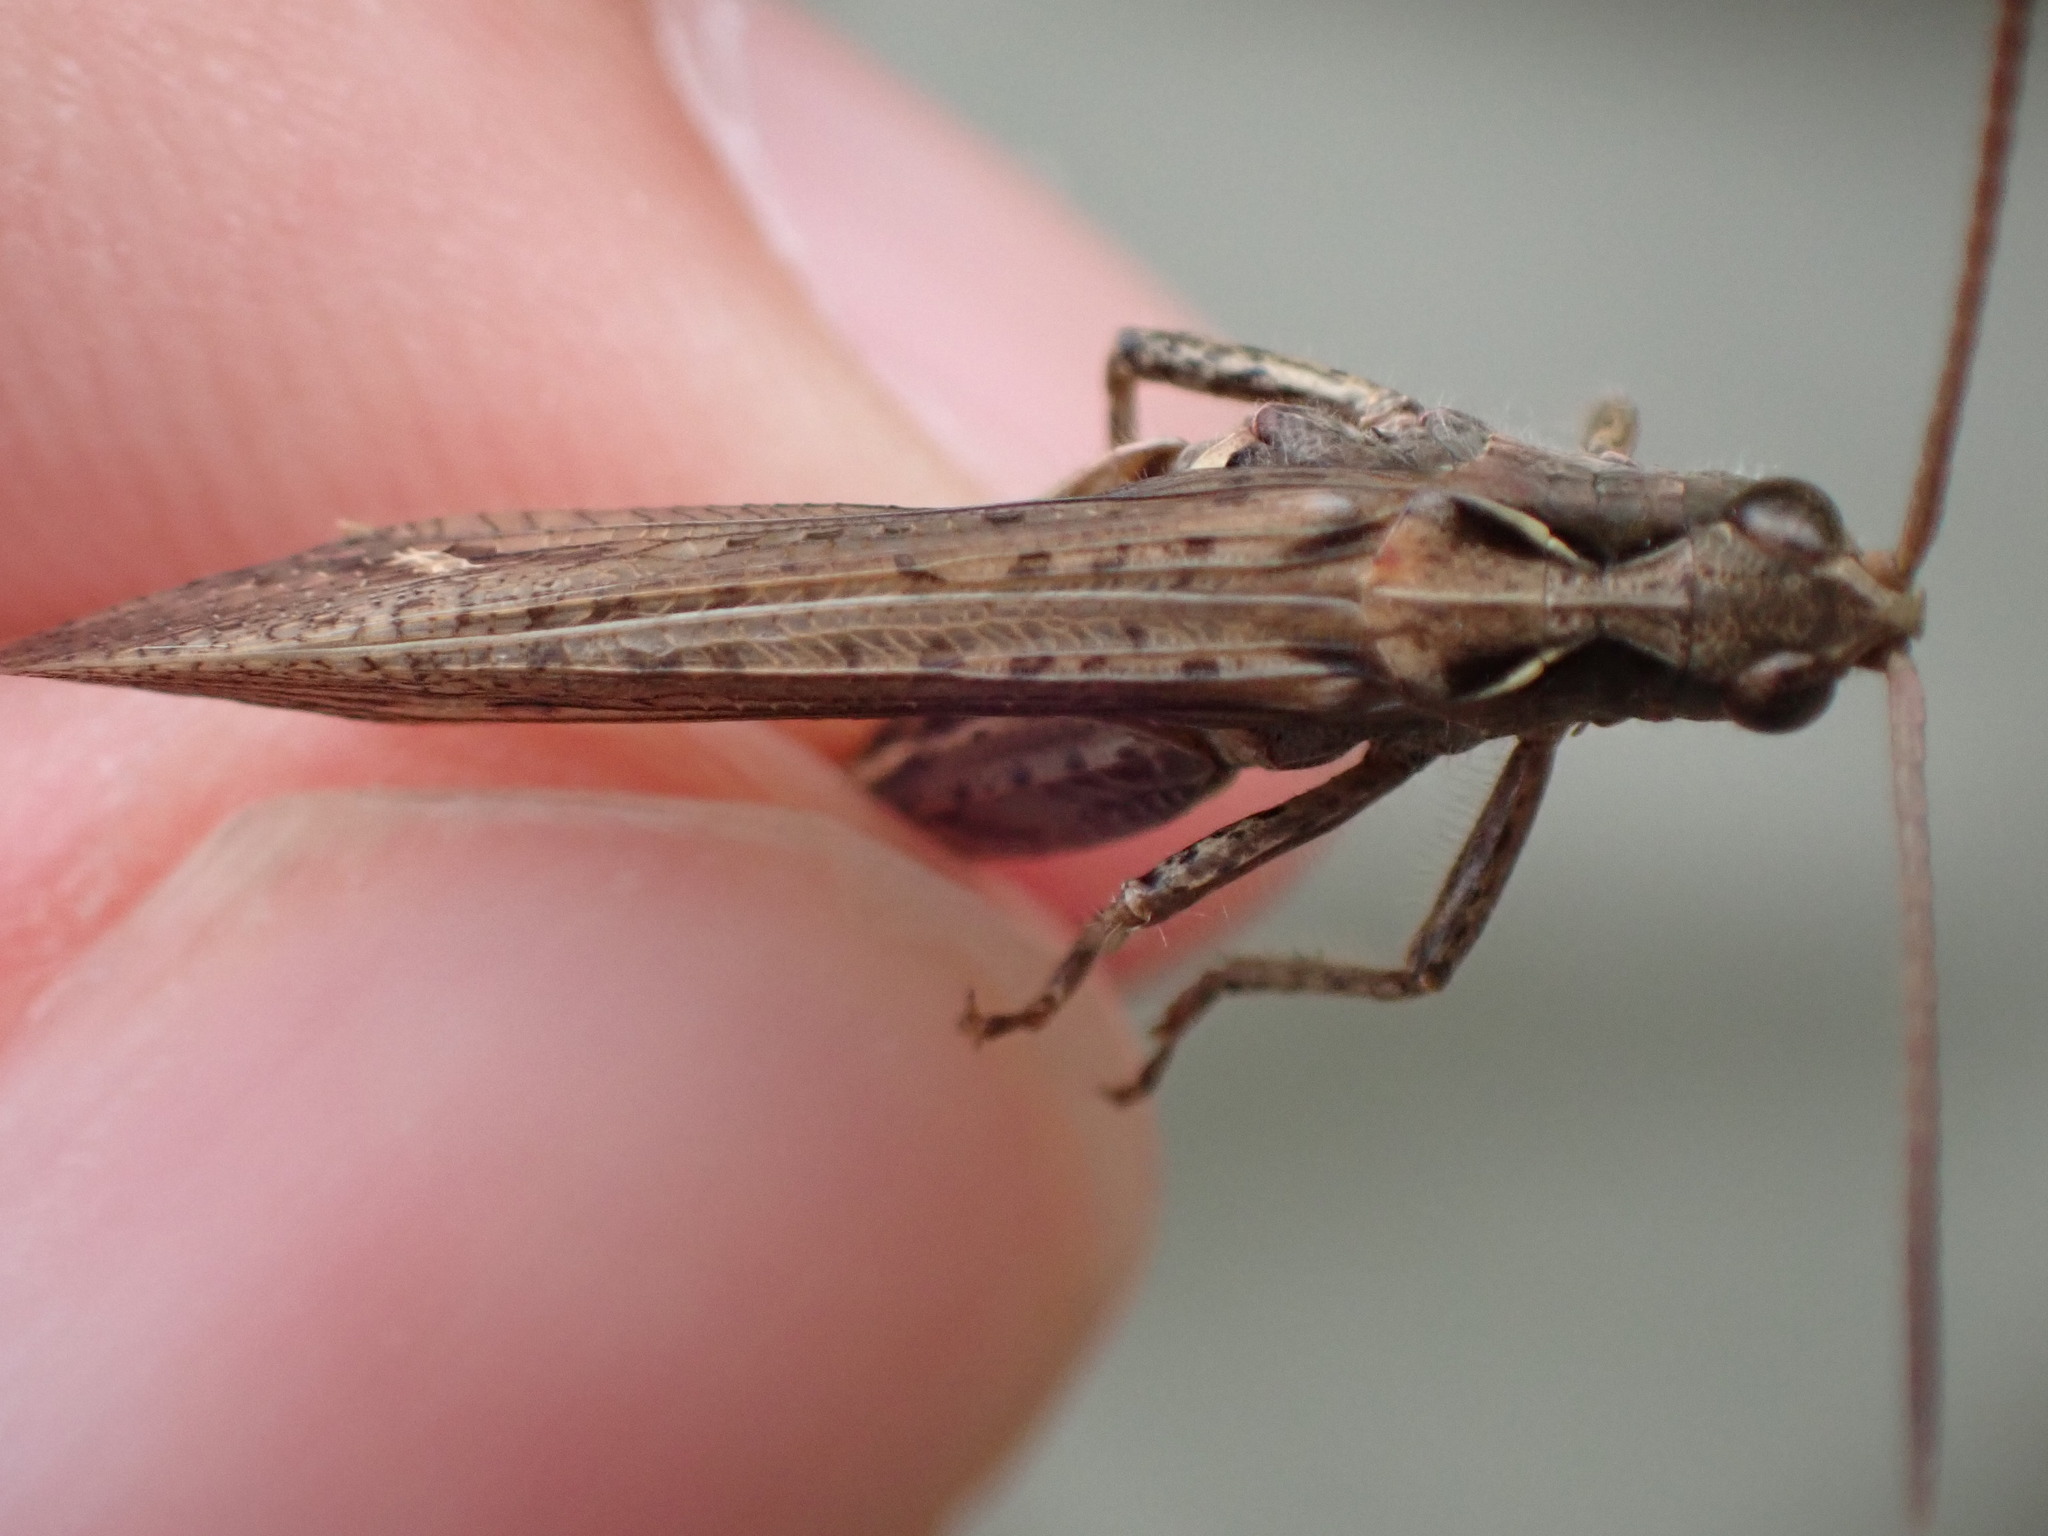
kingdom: Animalia
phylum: Arthropoda
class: Insecta
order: Orthoptera
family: Acrididae
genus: Chorthippus
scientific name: Chorthippus biguttulus
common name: Bow-winged grasshopper
